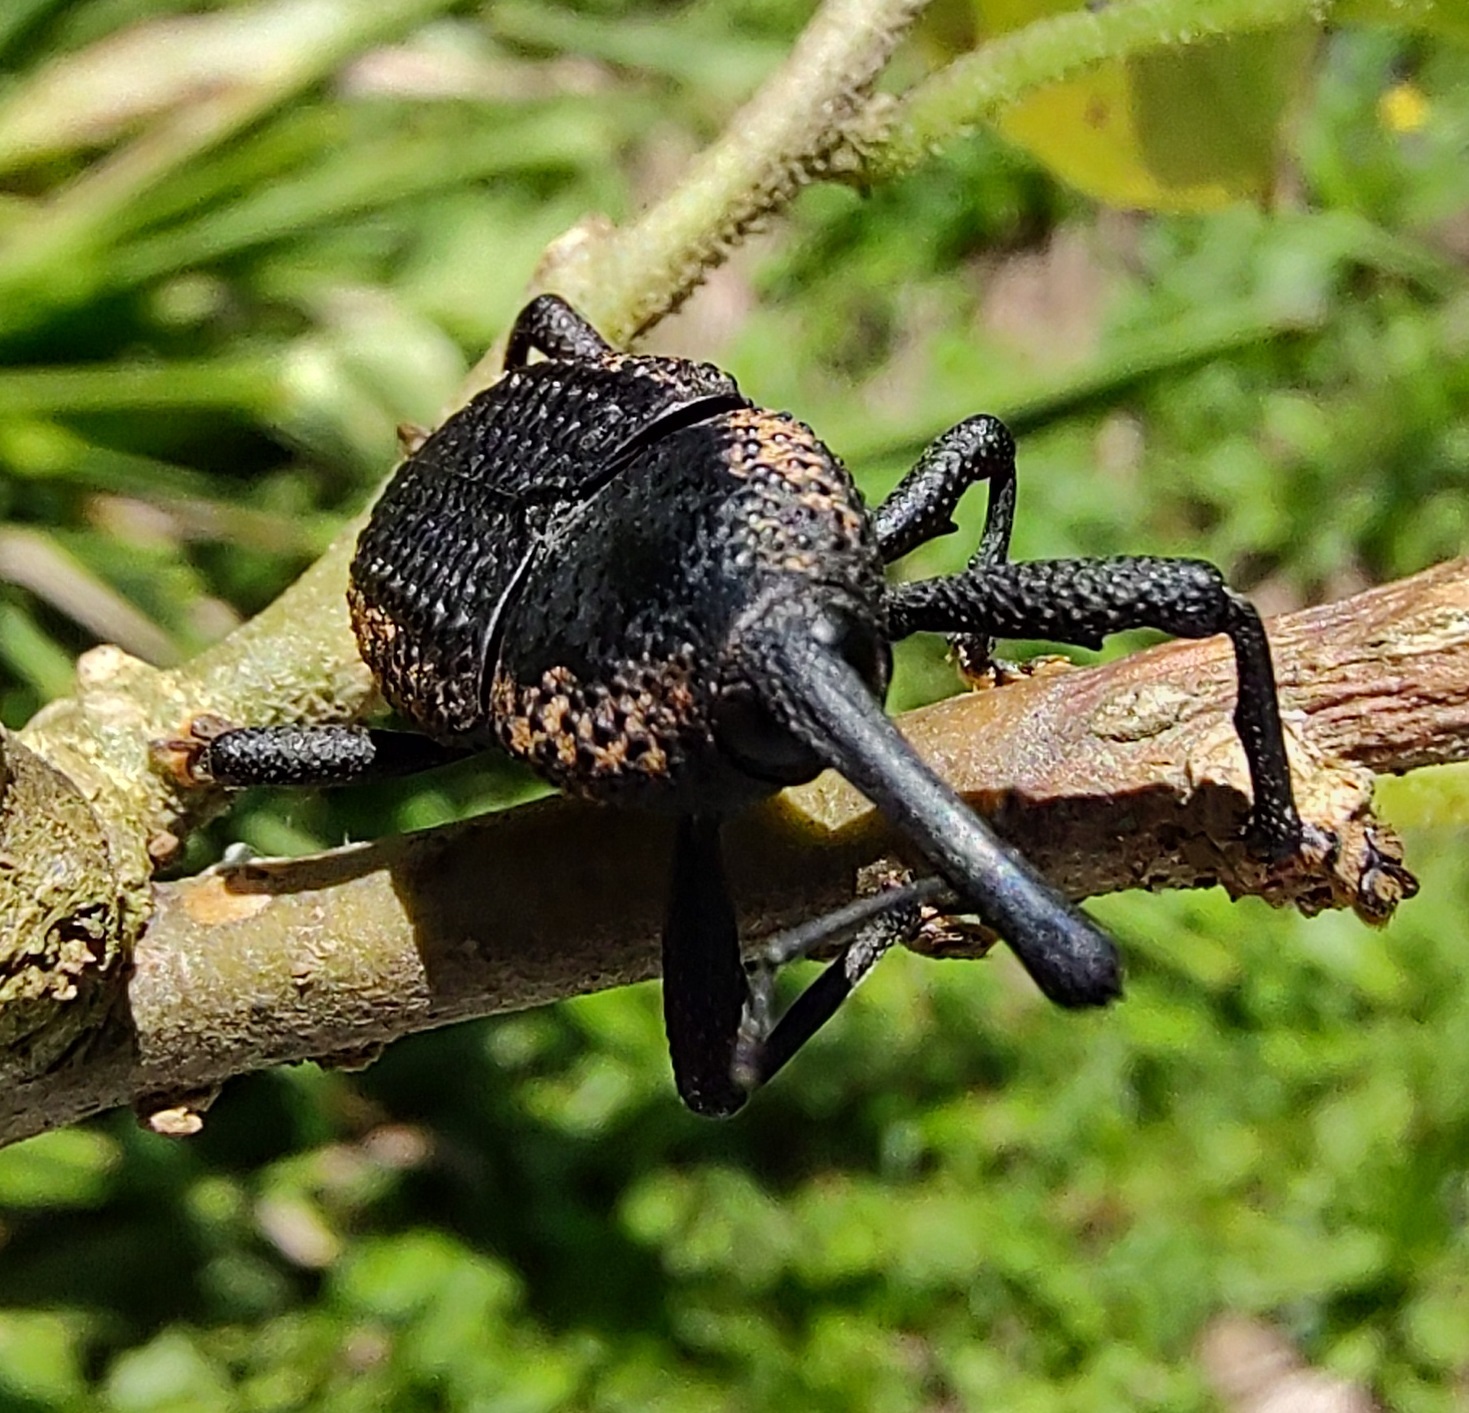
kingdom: Animalia
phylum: Arthropoda
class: Insecta
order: Coleoptera
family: Curculionidae
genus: Homalinotus
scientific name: Homalinotus deplanatus
